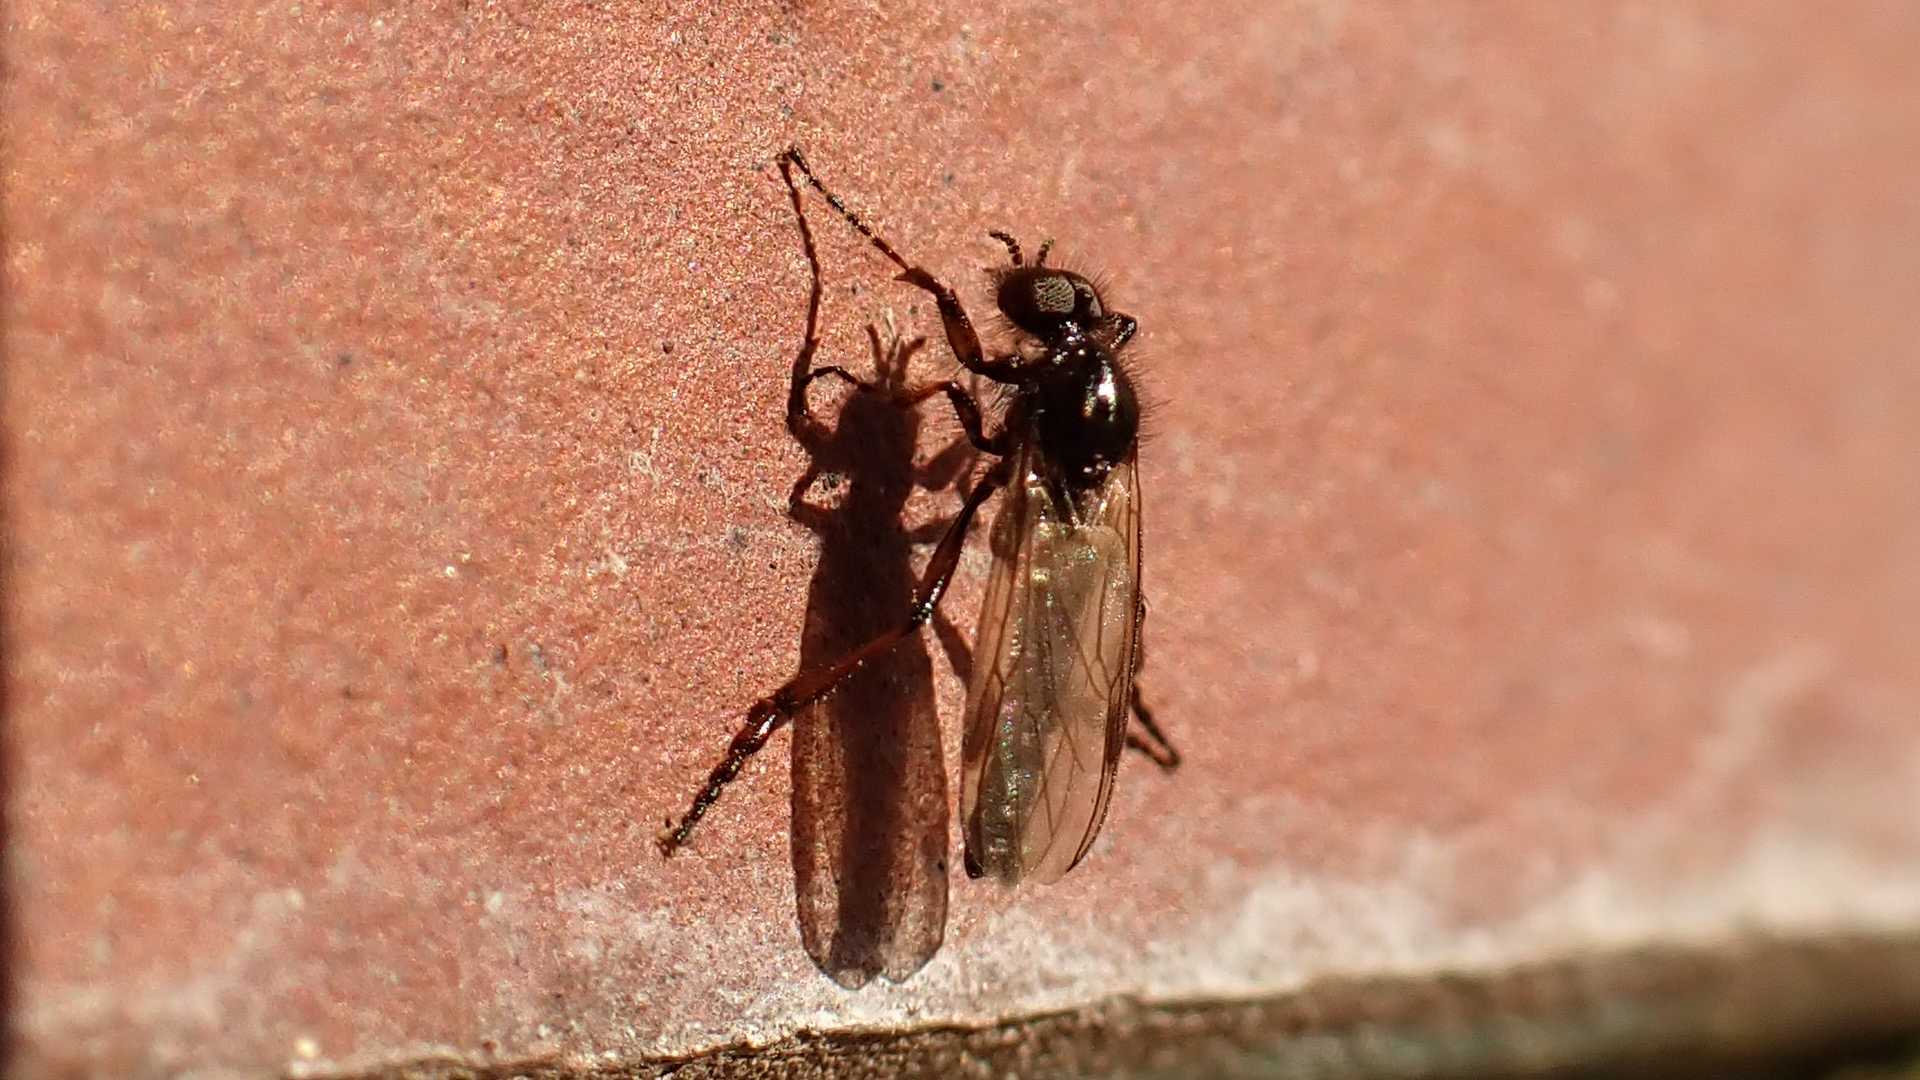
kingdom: Animalia
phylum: Arthropoda
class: Insecta
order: Diptera
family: Bibionidae
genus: Bibio
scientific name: Bibio marci
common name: St marks fly
